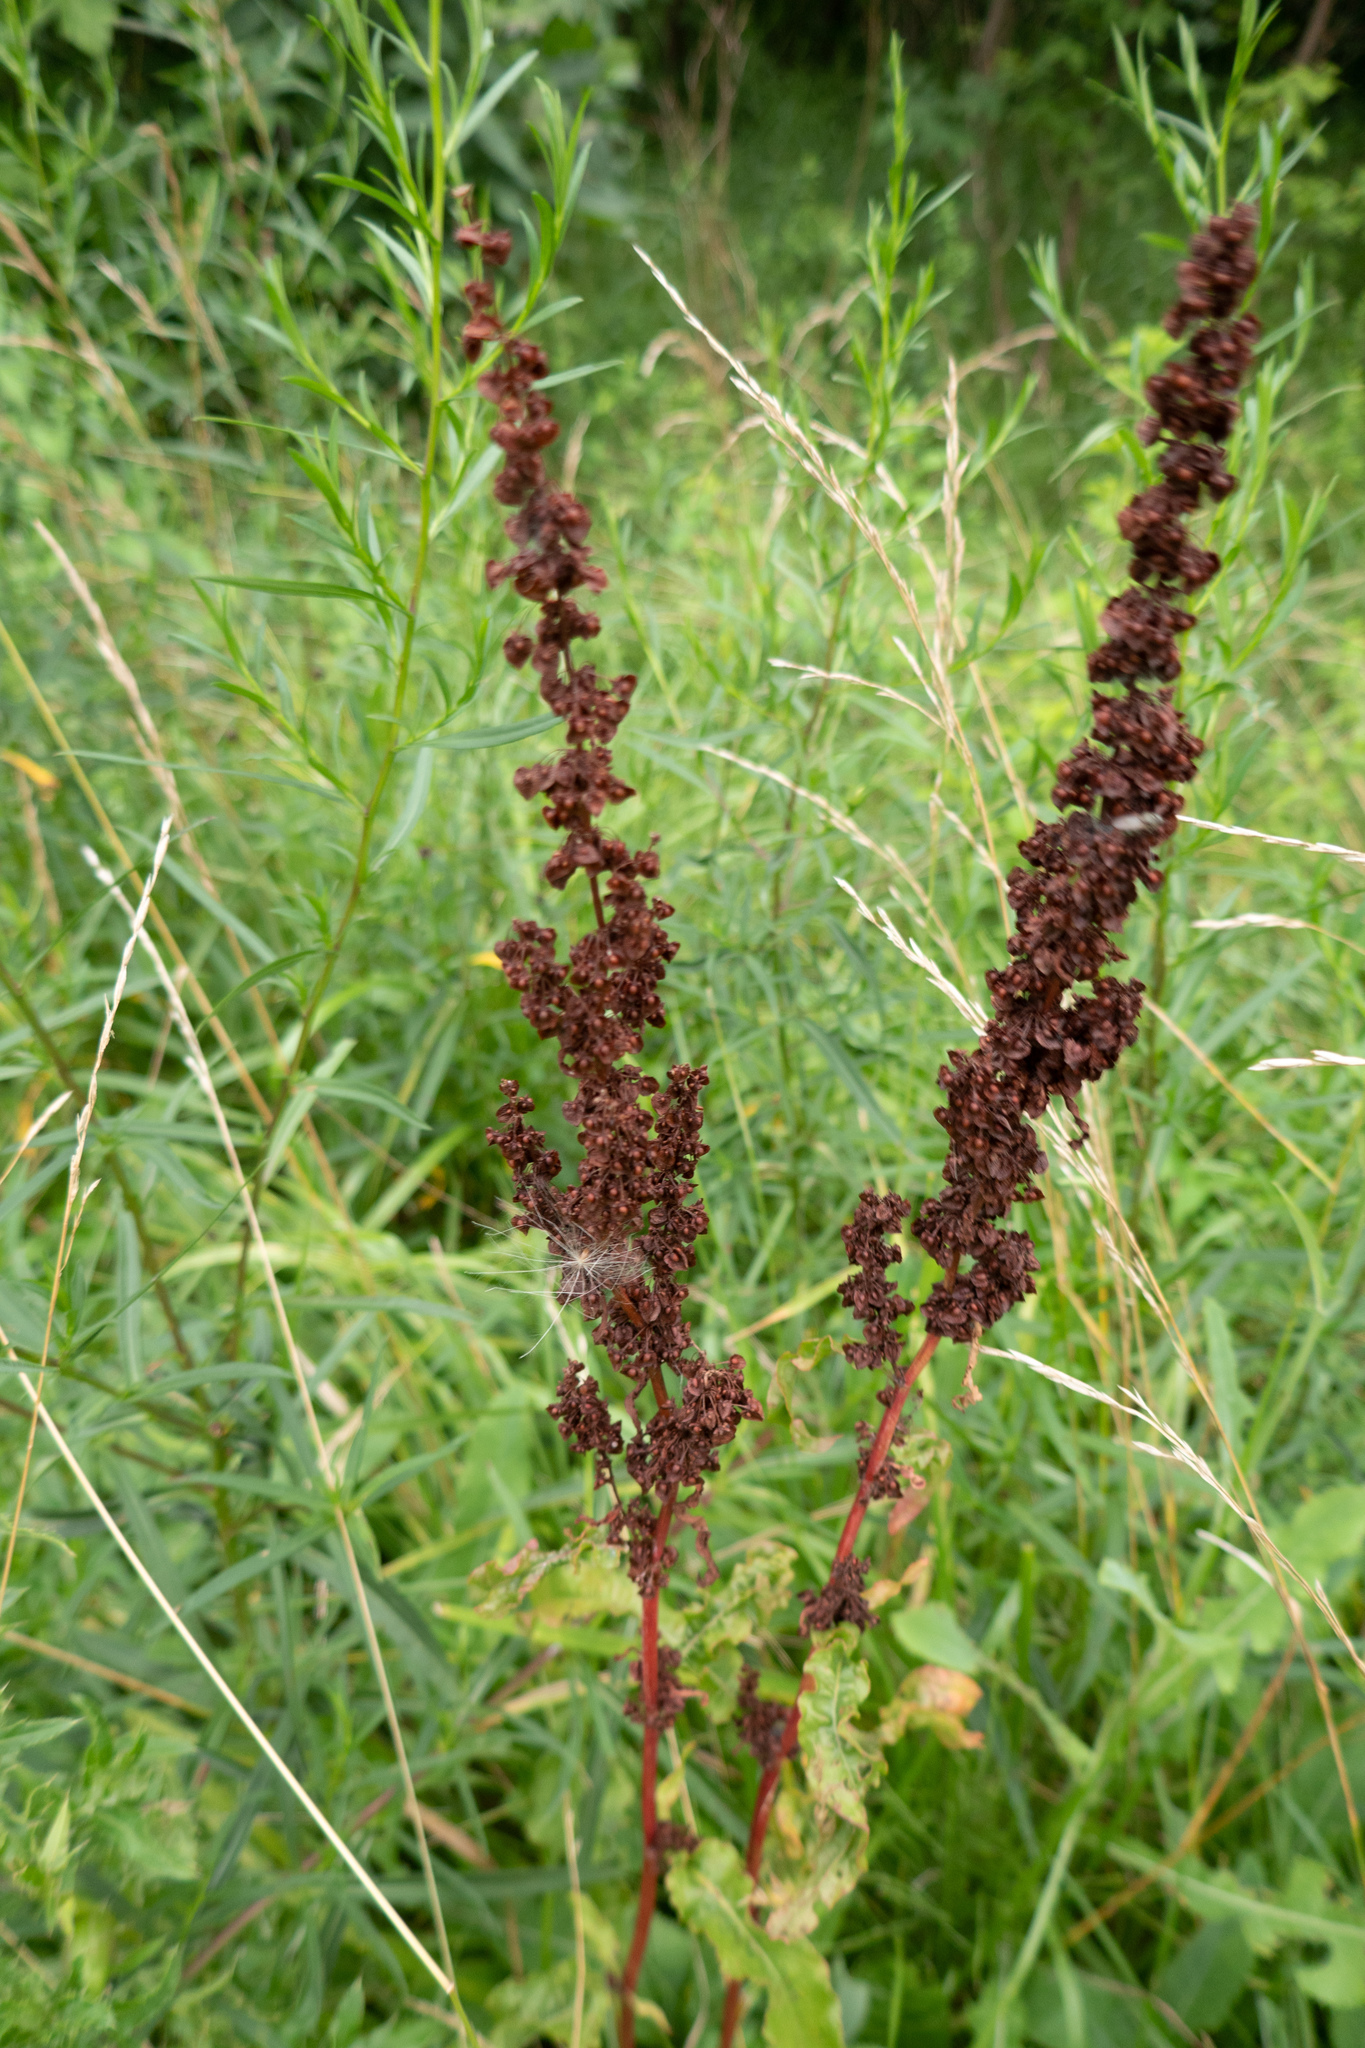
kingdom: Plantae
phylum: Tracheophyta
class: Magnoliopsida
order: Caryophyllales
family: Polygonaceae
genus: Rumex
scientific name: Rumex crispus
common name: Curled dock
